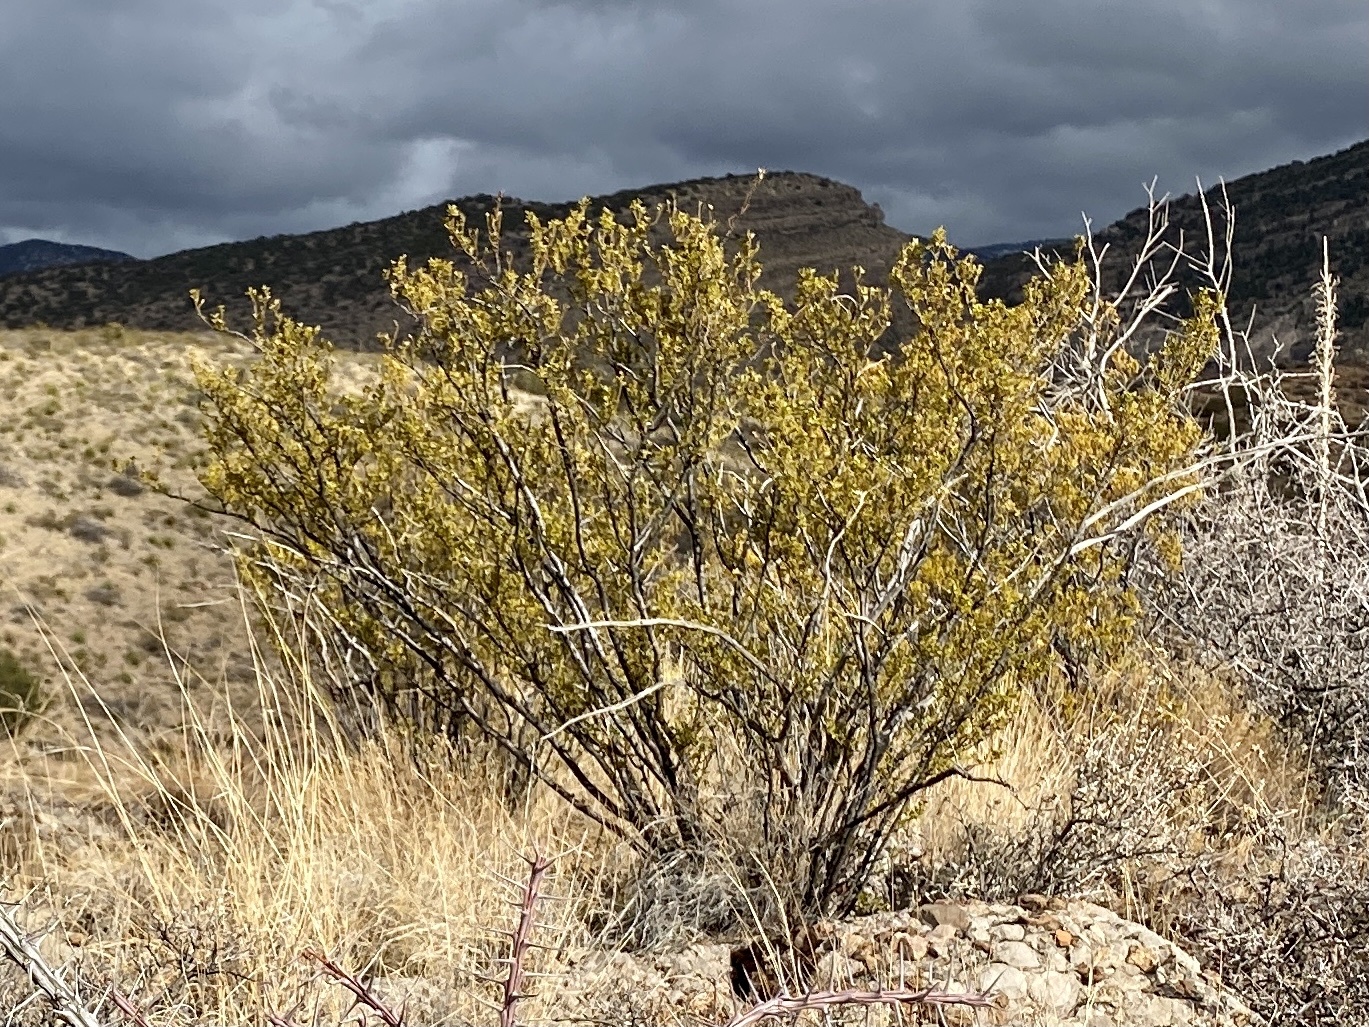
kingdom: Plantae
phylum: Tracheophyta
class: Magnoliopsida
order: Zygophyllales
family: Zygophyllaceae
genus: Larrea
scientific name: Larrea tridentata
